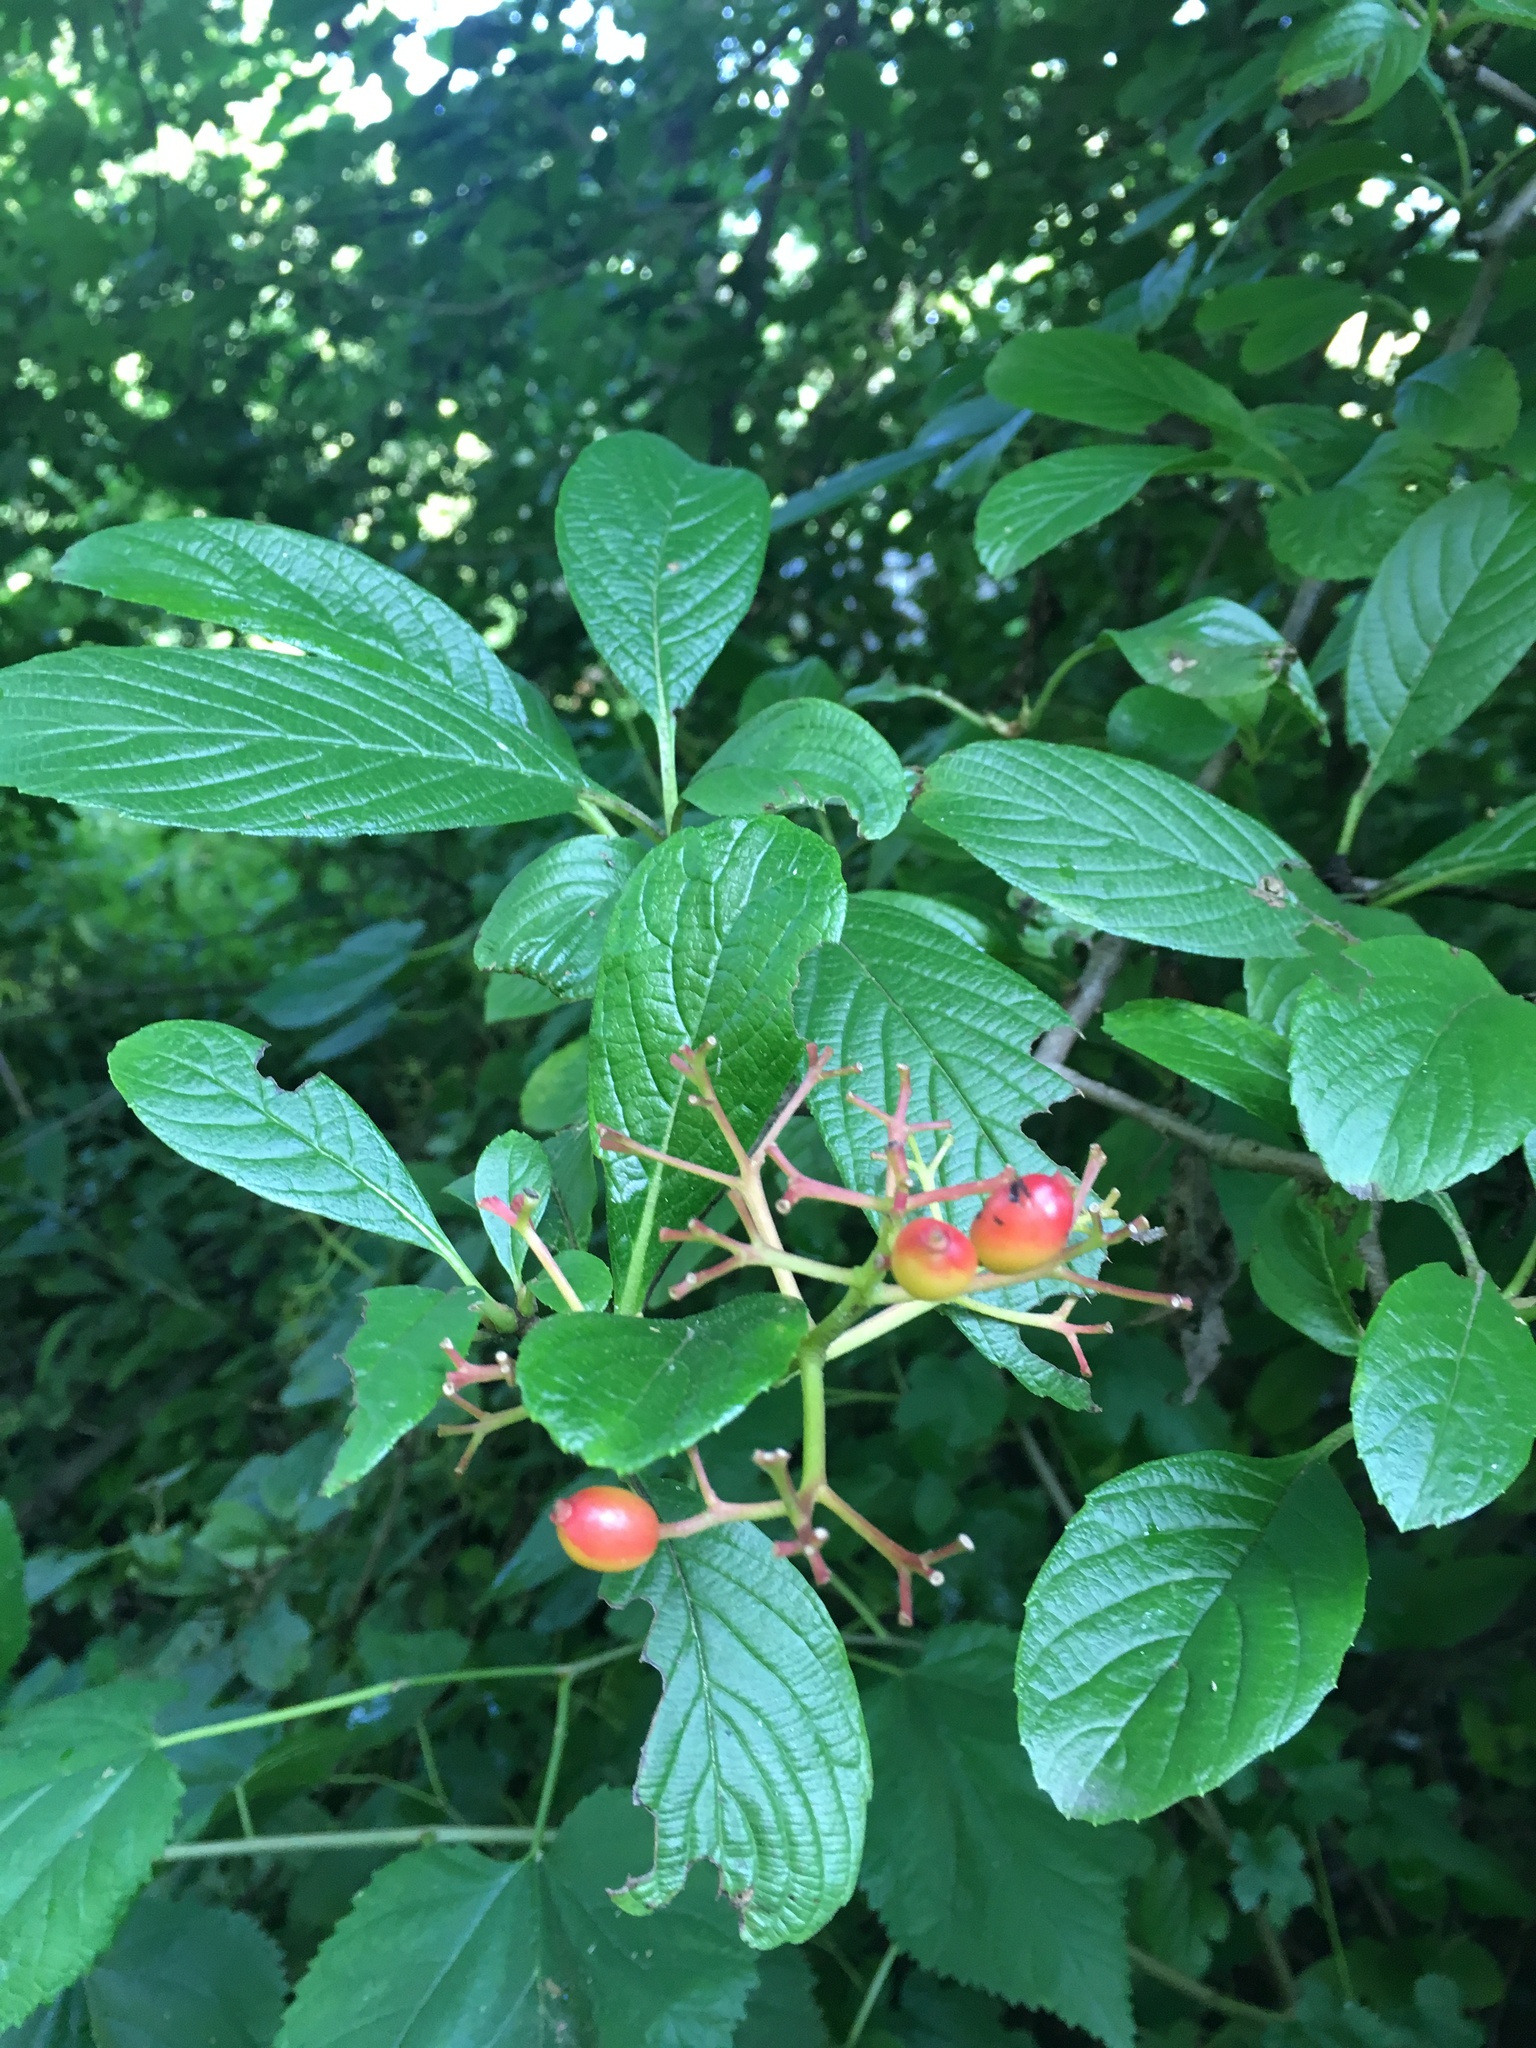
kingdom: Plantae
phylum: Tracheophyta
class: Magnoliopsida
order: Dipsacales
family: Viburnaceae
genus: Viburnum
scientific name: Viburnum sieboldii
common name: Siebold's arrowwood
